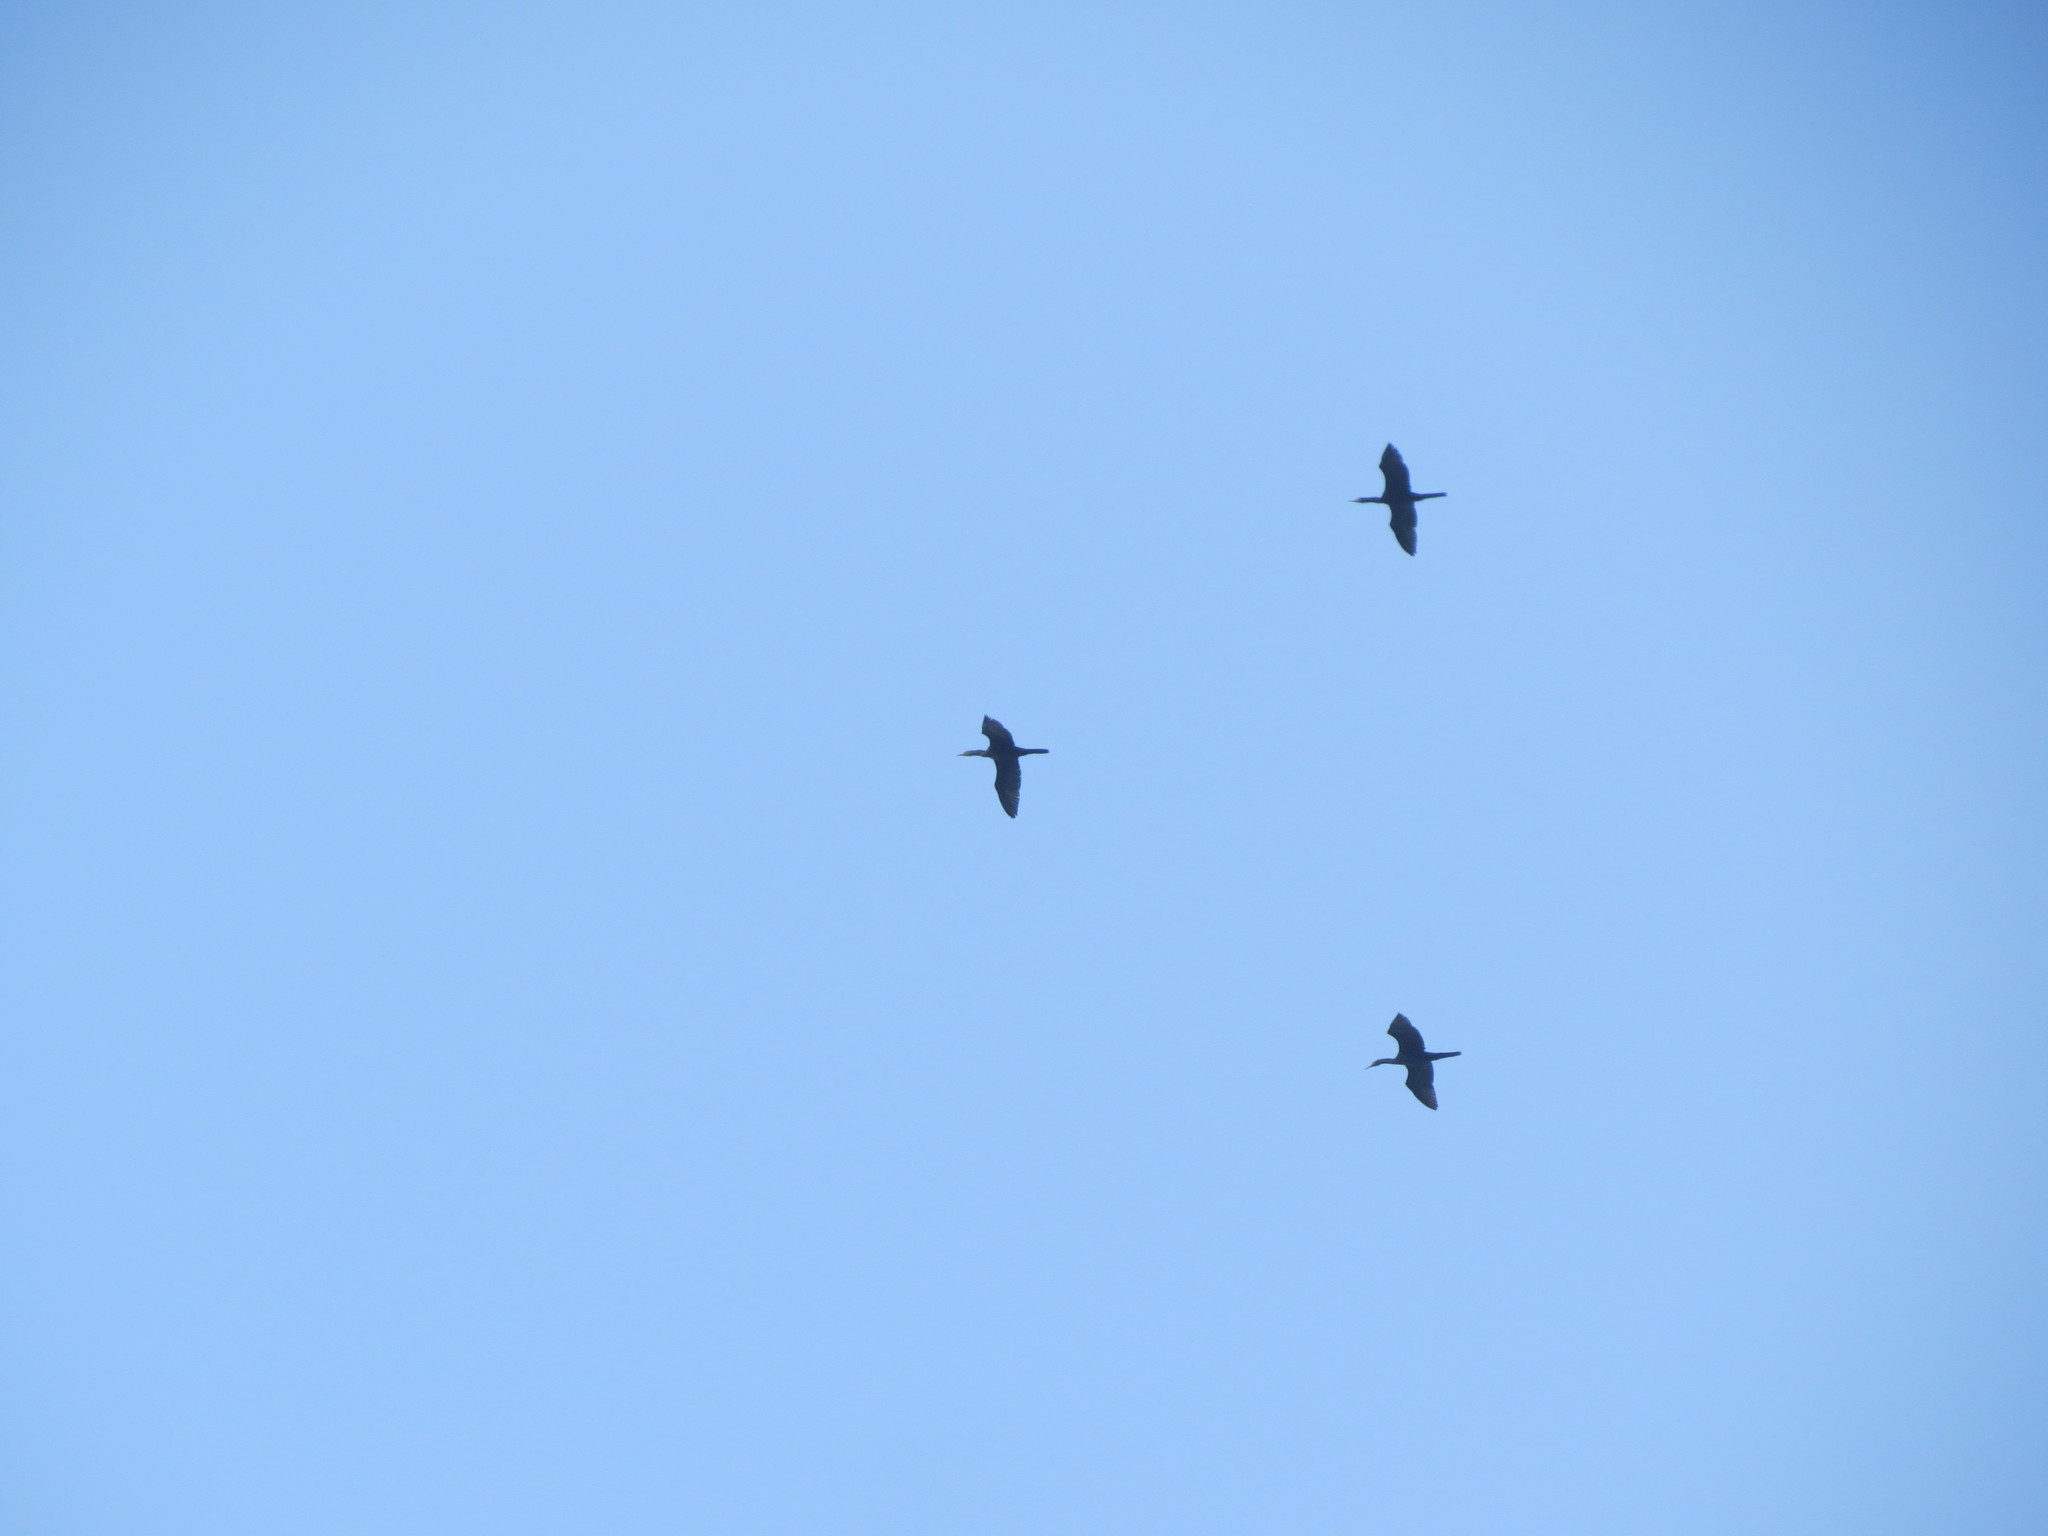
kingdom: Animalia
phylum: Chordata
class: Aves
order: Suliformes
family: Phalacrocoracidae
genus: Phalacrocorax
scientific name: Phalacrocorax brasilianus
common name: Neotropic cormorant
